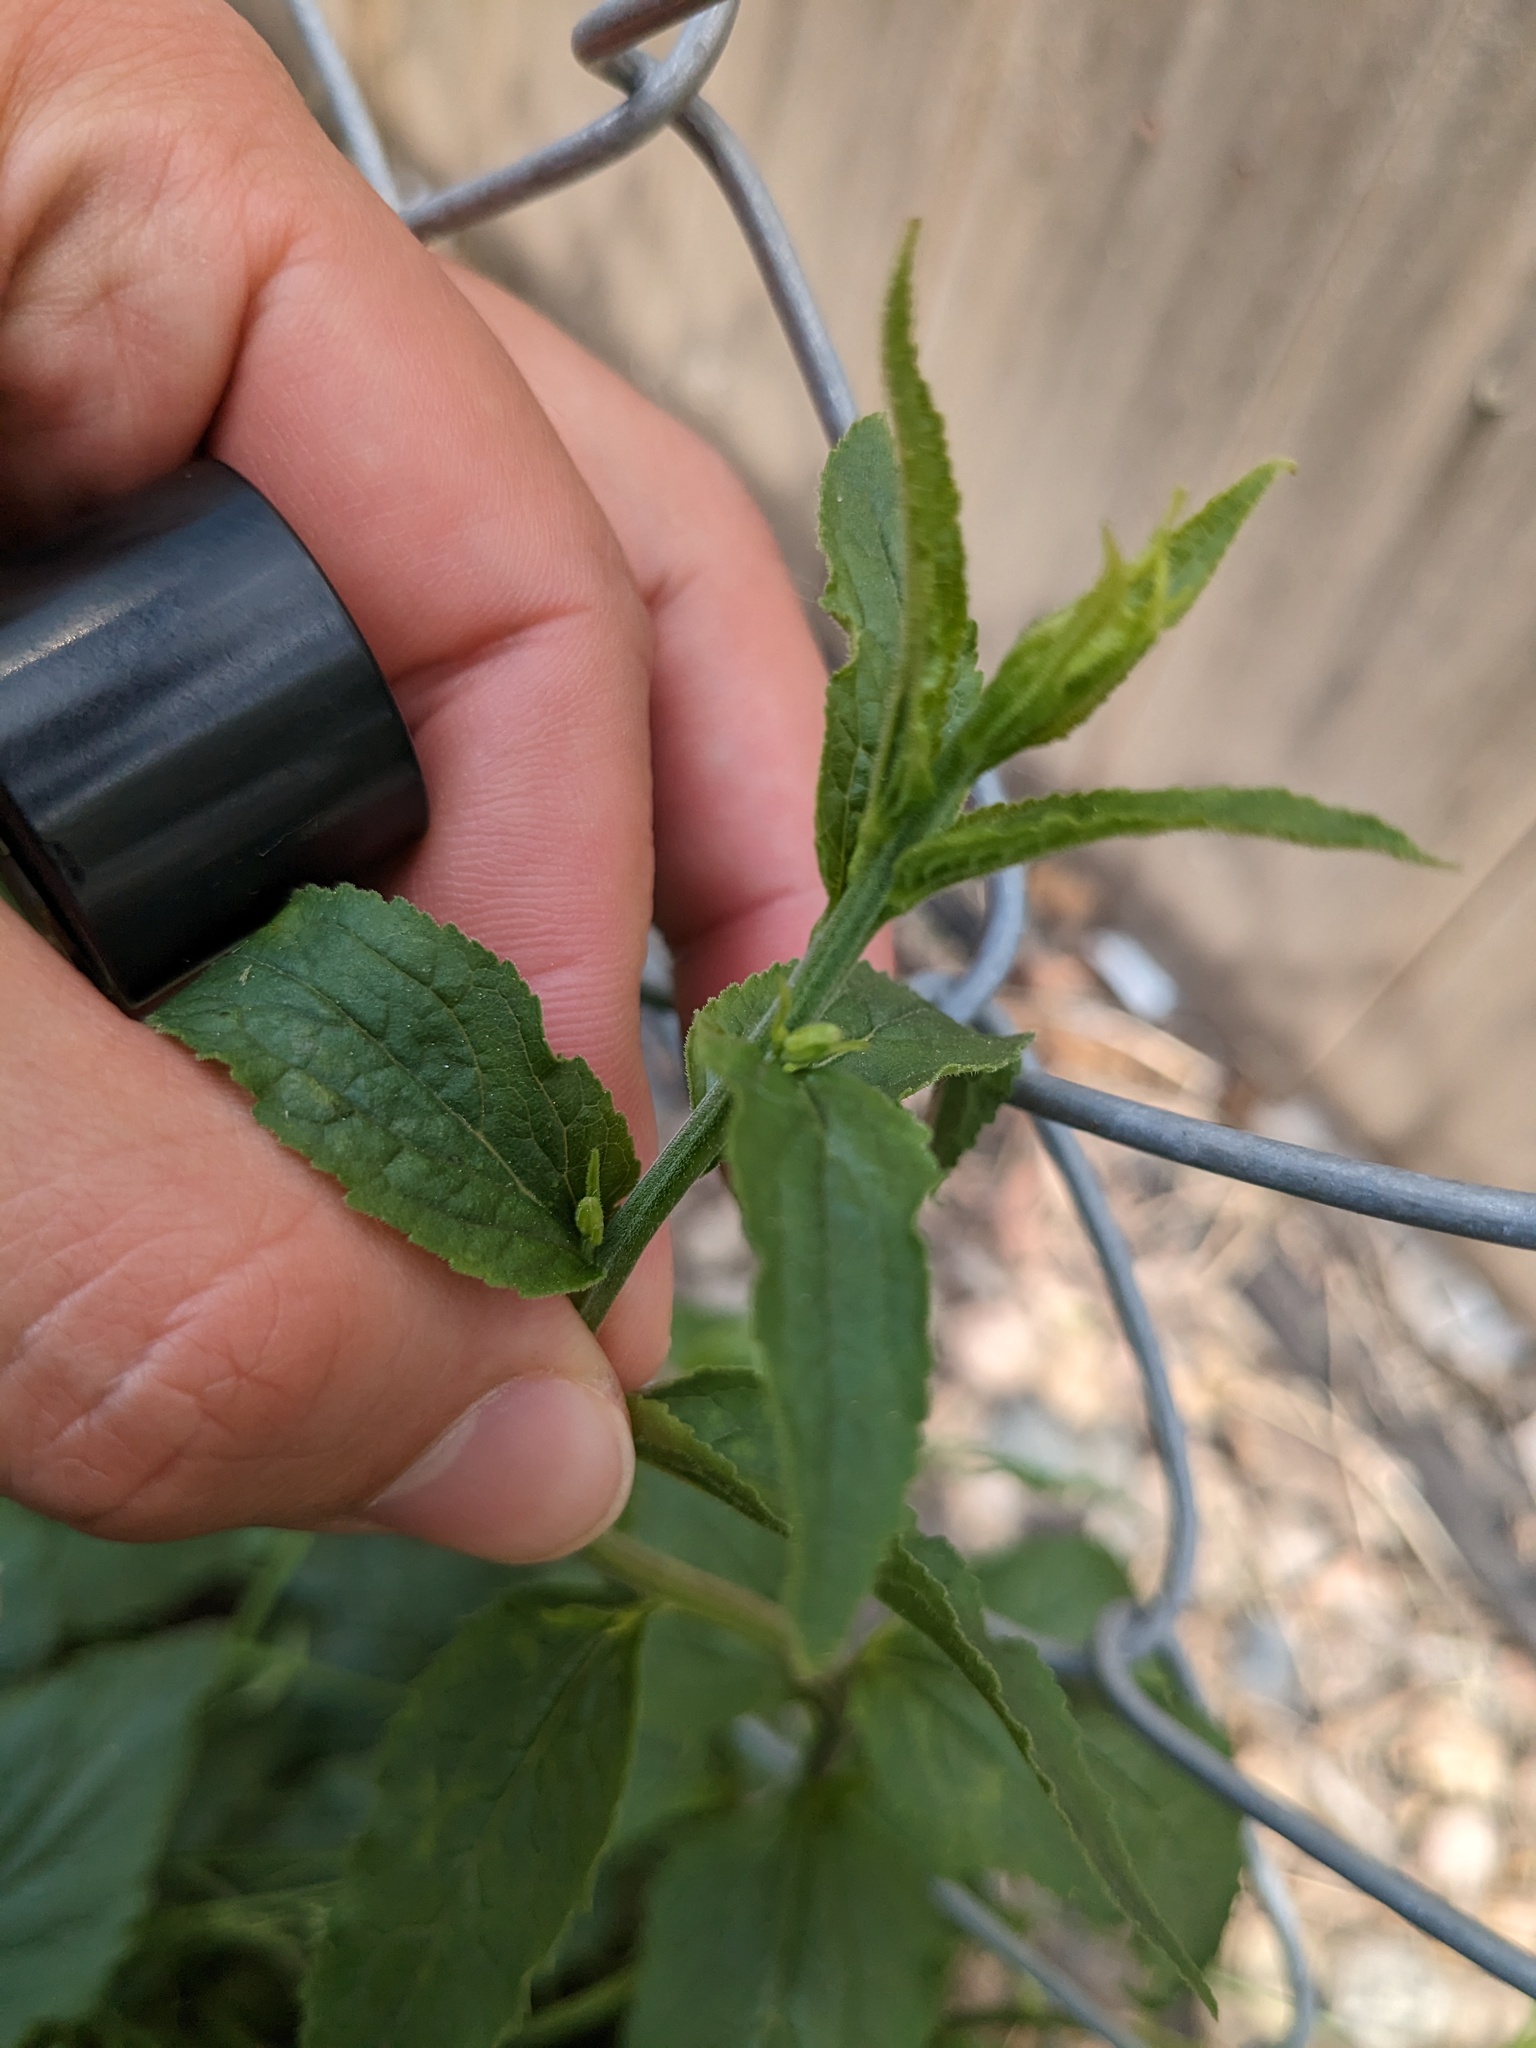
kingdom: Plantae
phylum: Tracheophyta
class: Magnoliopsida
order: Asterales
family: Campanulaceae
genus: Campanula
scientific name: Campanula rapunculoides
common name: Creeping bellflower
